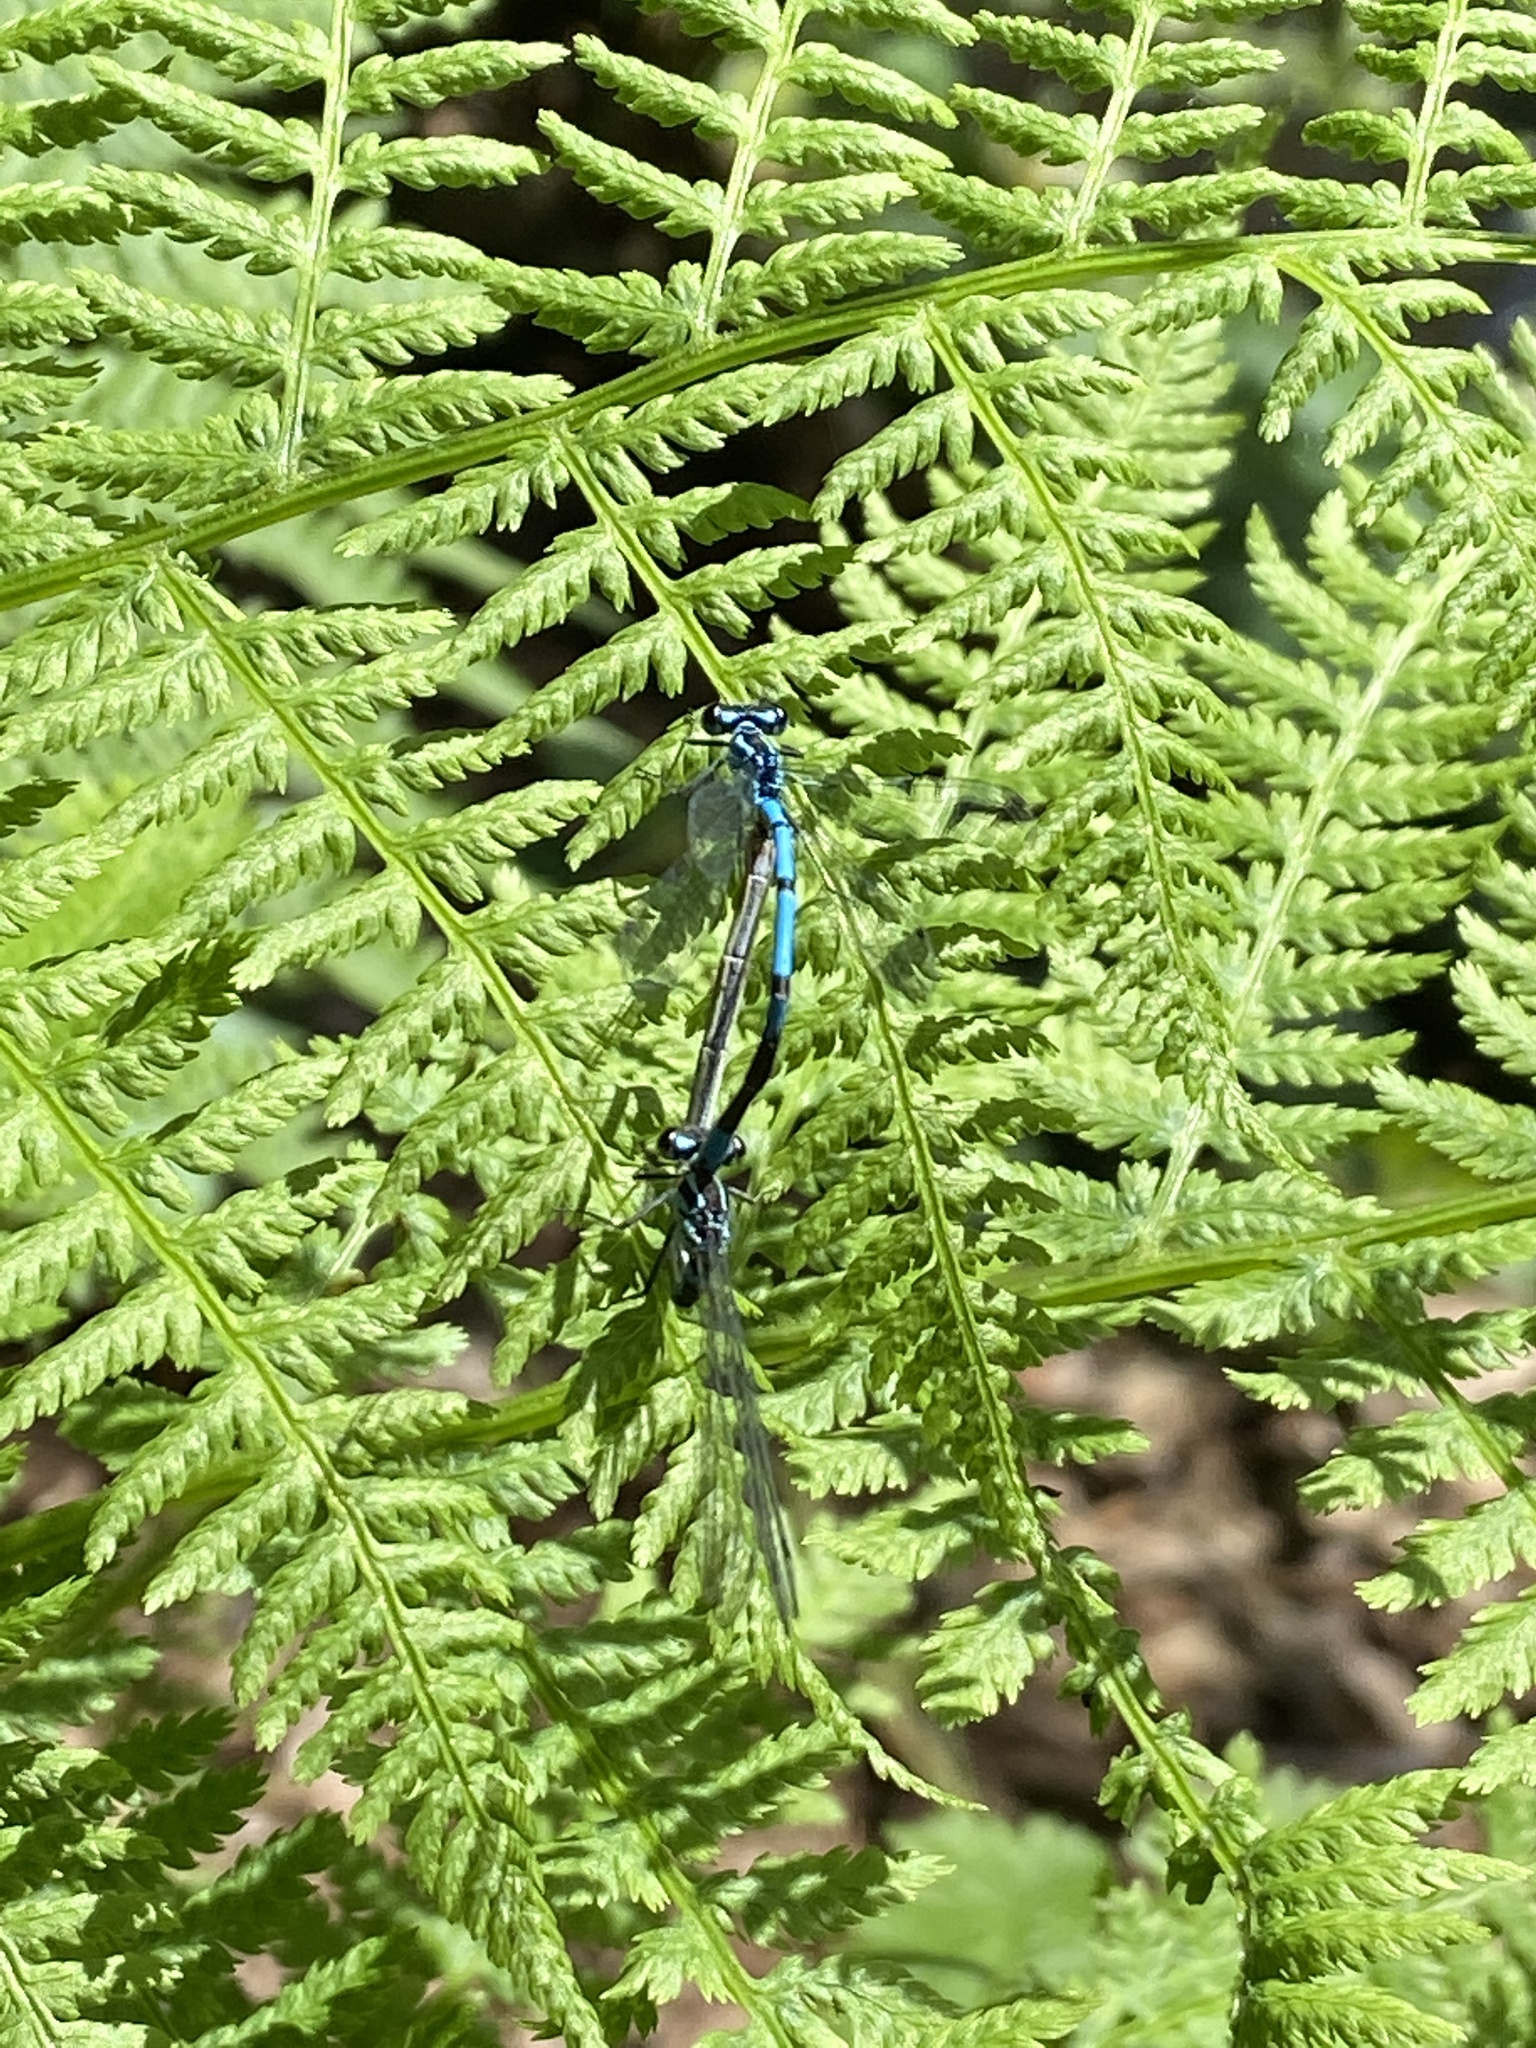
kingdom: Animalia
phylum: Arthropoda
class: Insecta
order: Odonata
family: Coenagrionidae
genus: Coenagrion
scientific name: Coenagrion puella
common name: Azure damselfly
